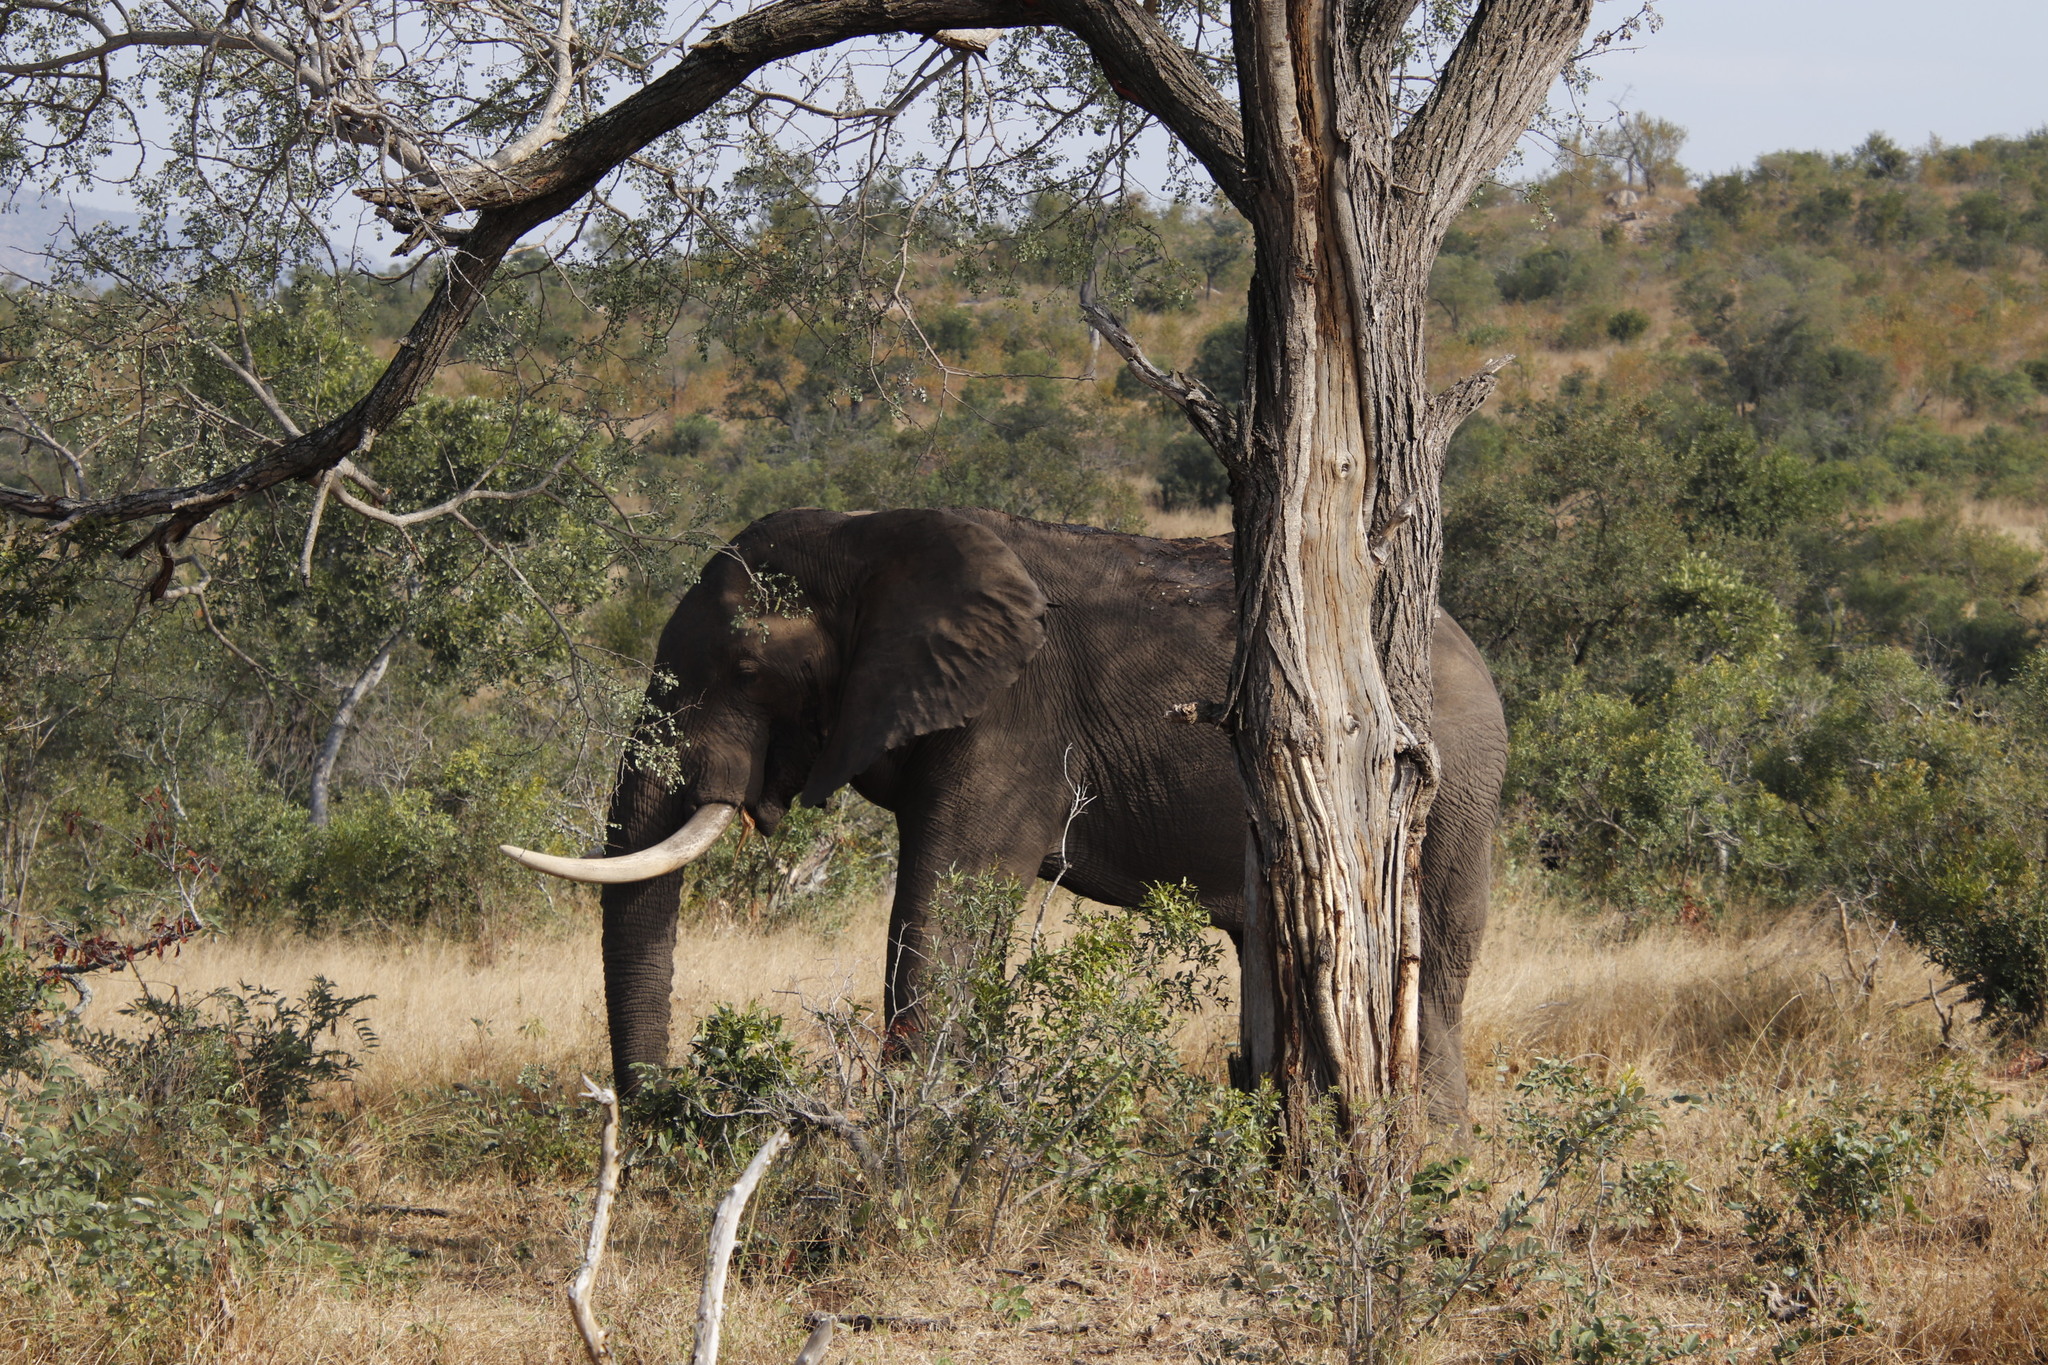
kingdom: Animalia
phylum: Chordata
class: Mammalia
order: Proboscidea
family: Elephantidae
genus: Loxodonta
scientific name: Loxodonta africana
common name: African elephant
